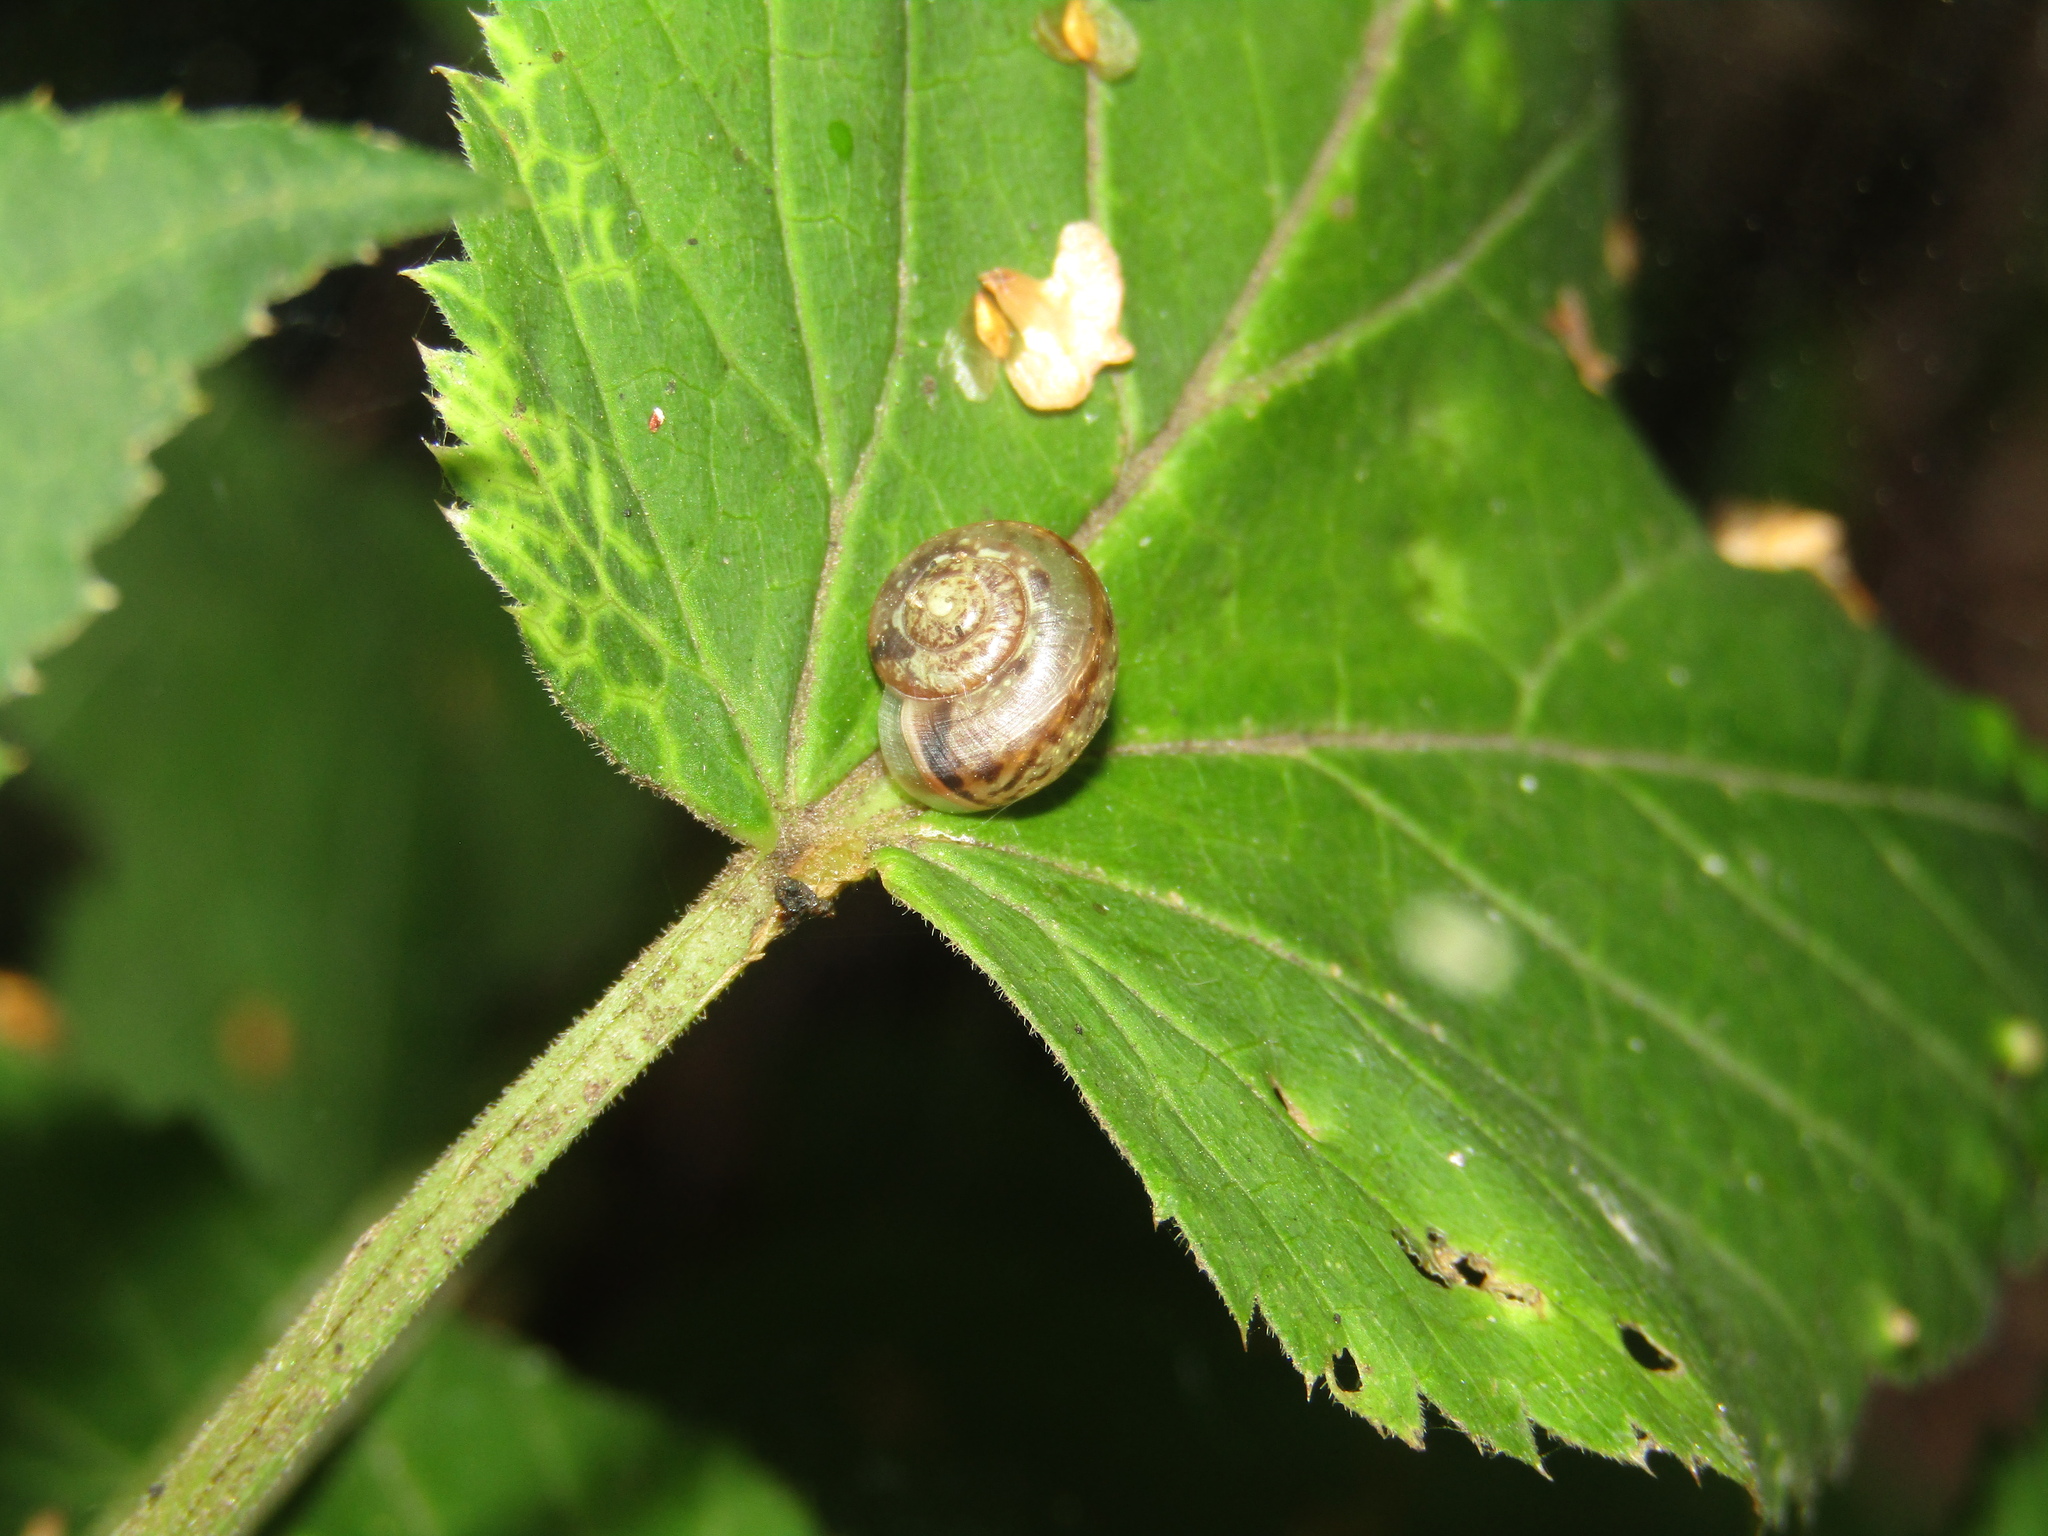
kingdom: Animalia
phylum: Mollusca
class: Gastropoda
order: Stylommatophora
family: Camaenidae
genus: Fruticicola
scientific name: Fruticicola fruticum
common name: Bush snail
